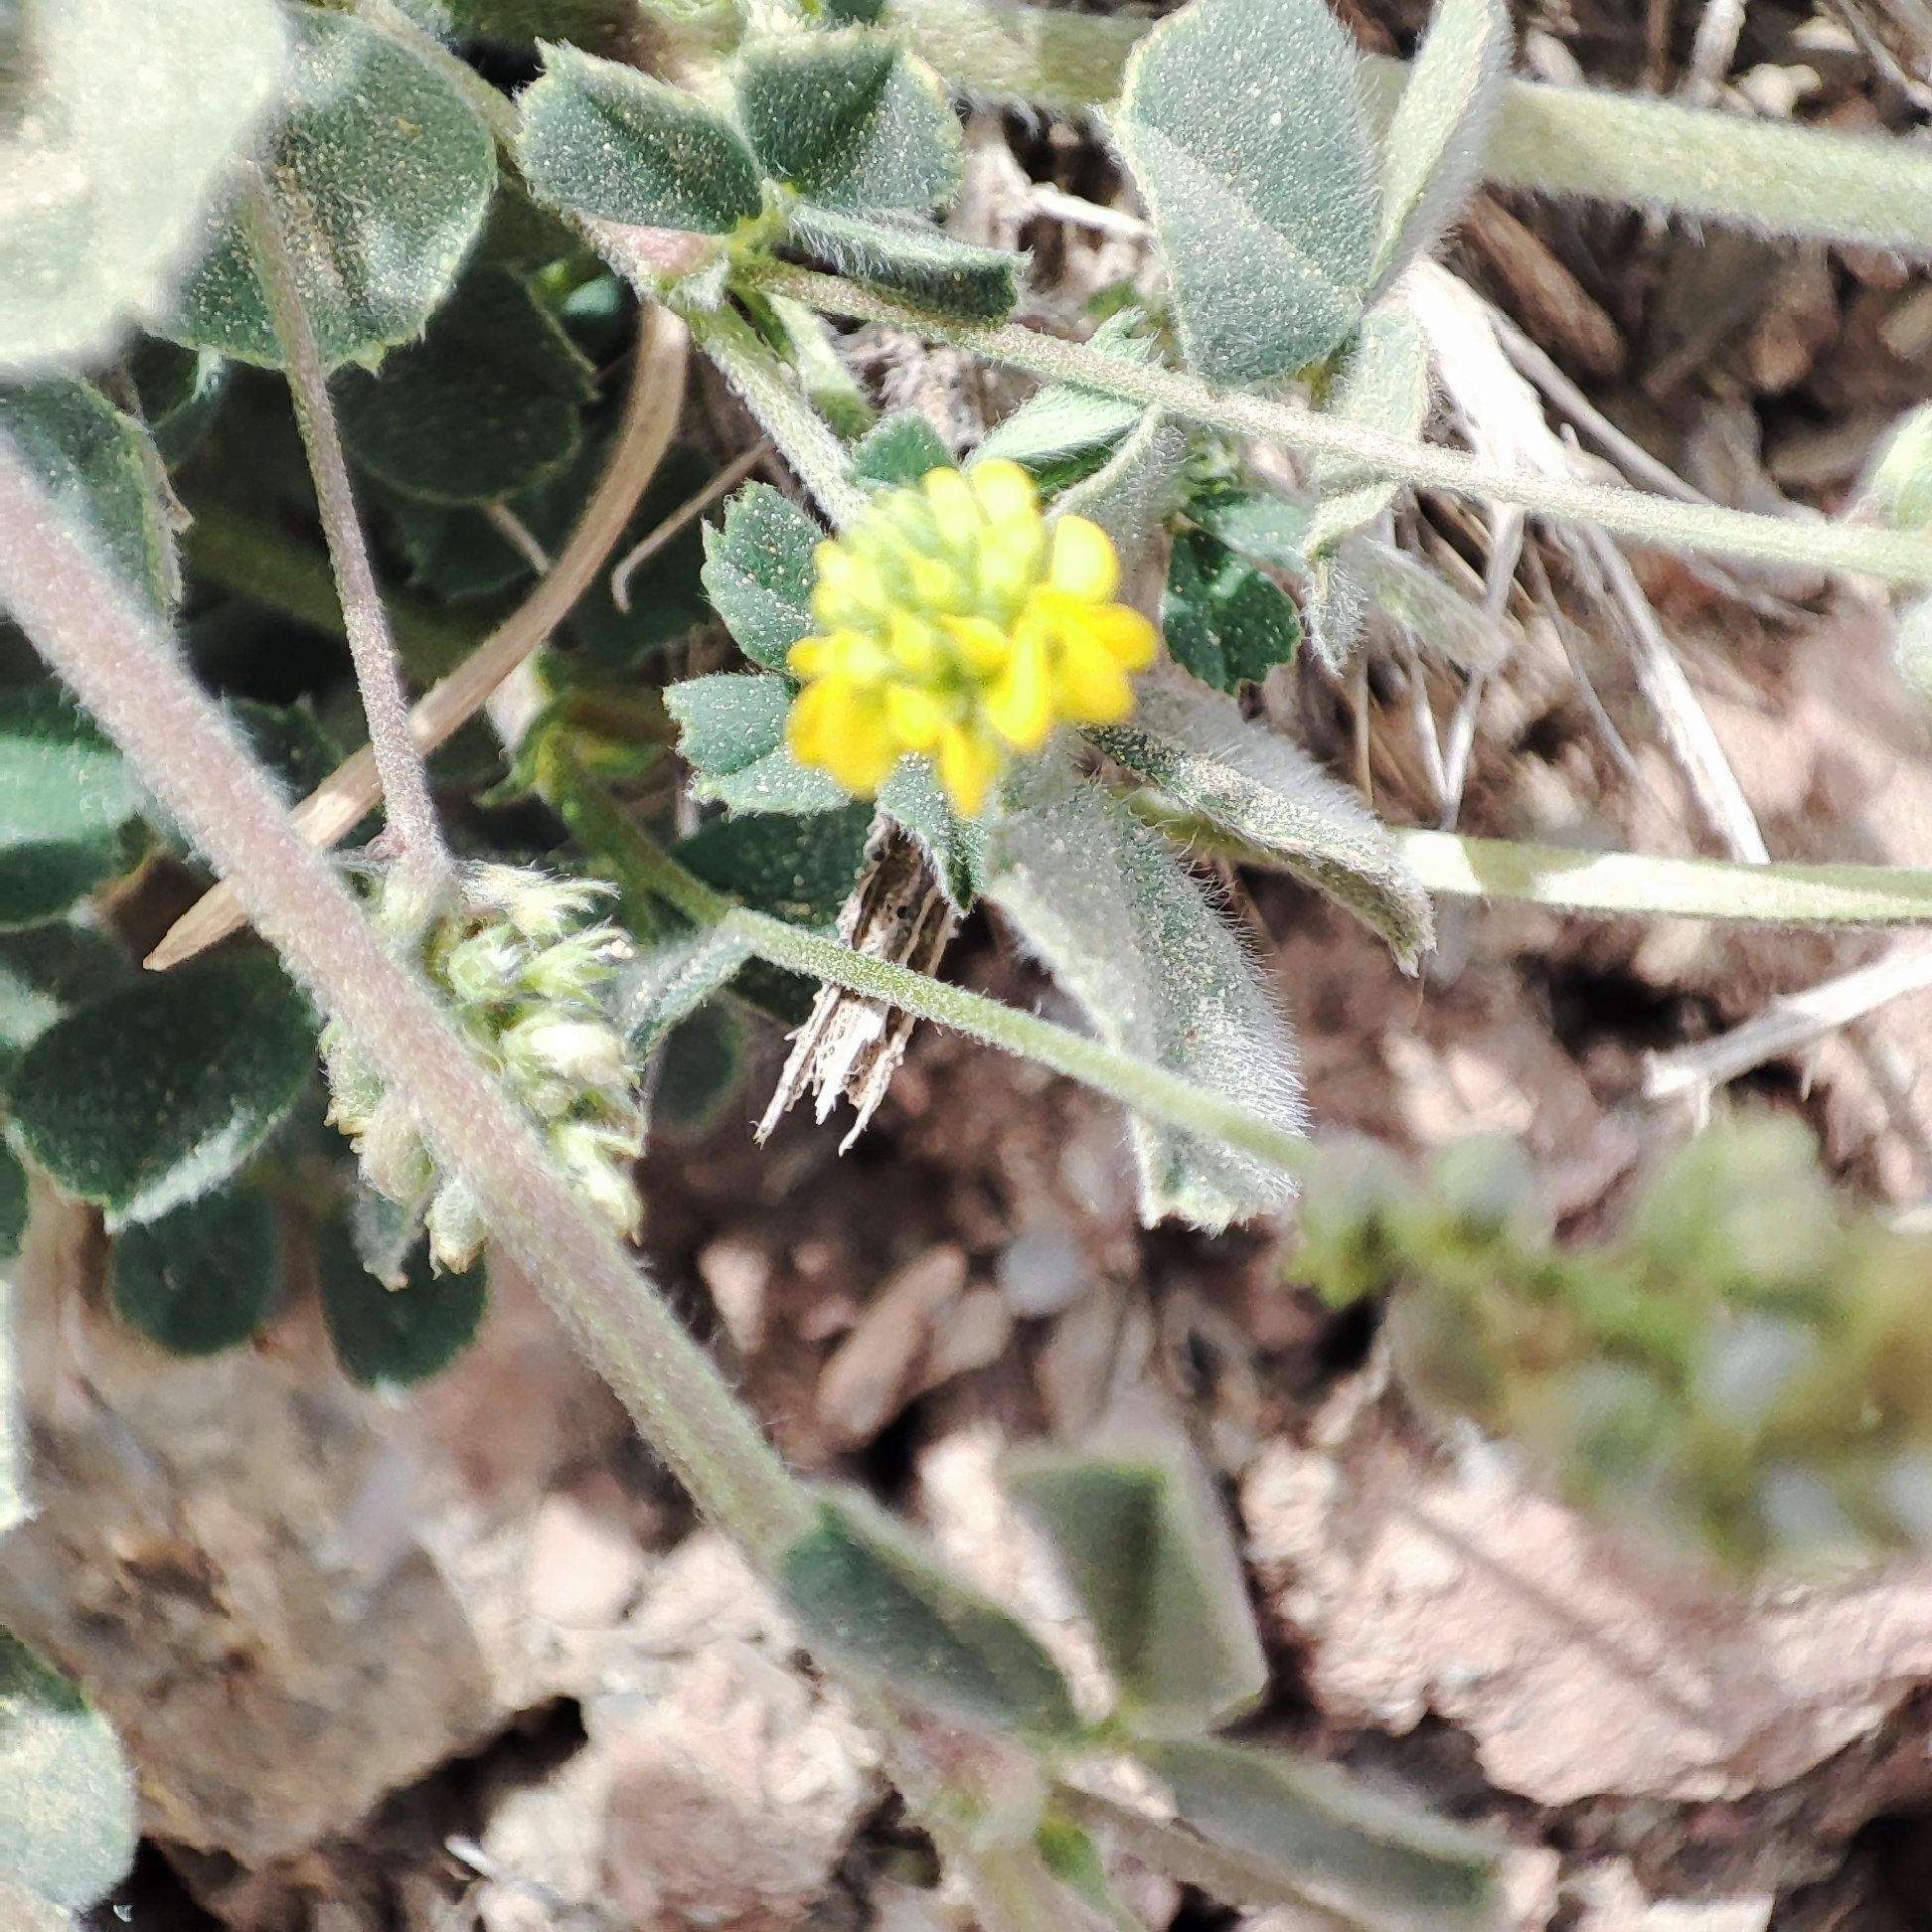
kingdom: Plantae
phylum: Tracheophyta
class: Magnoliopsida
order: Fabales
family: Fabaceae
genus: Medicago
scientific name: Medicago lupulina
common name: Black medick
